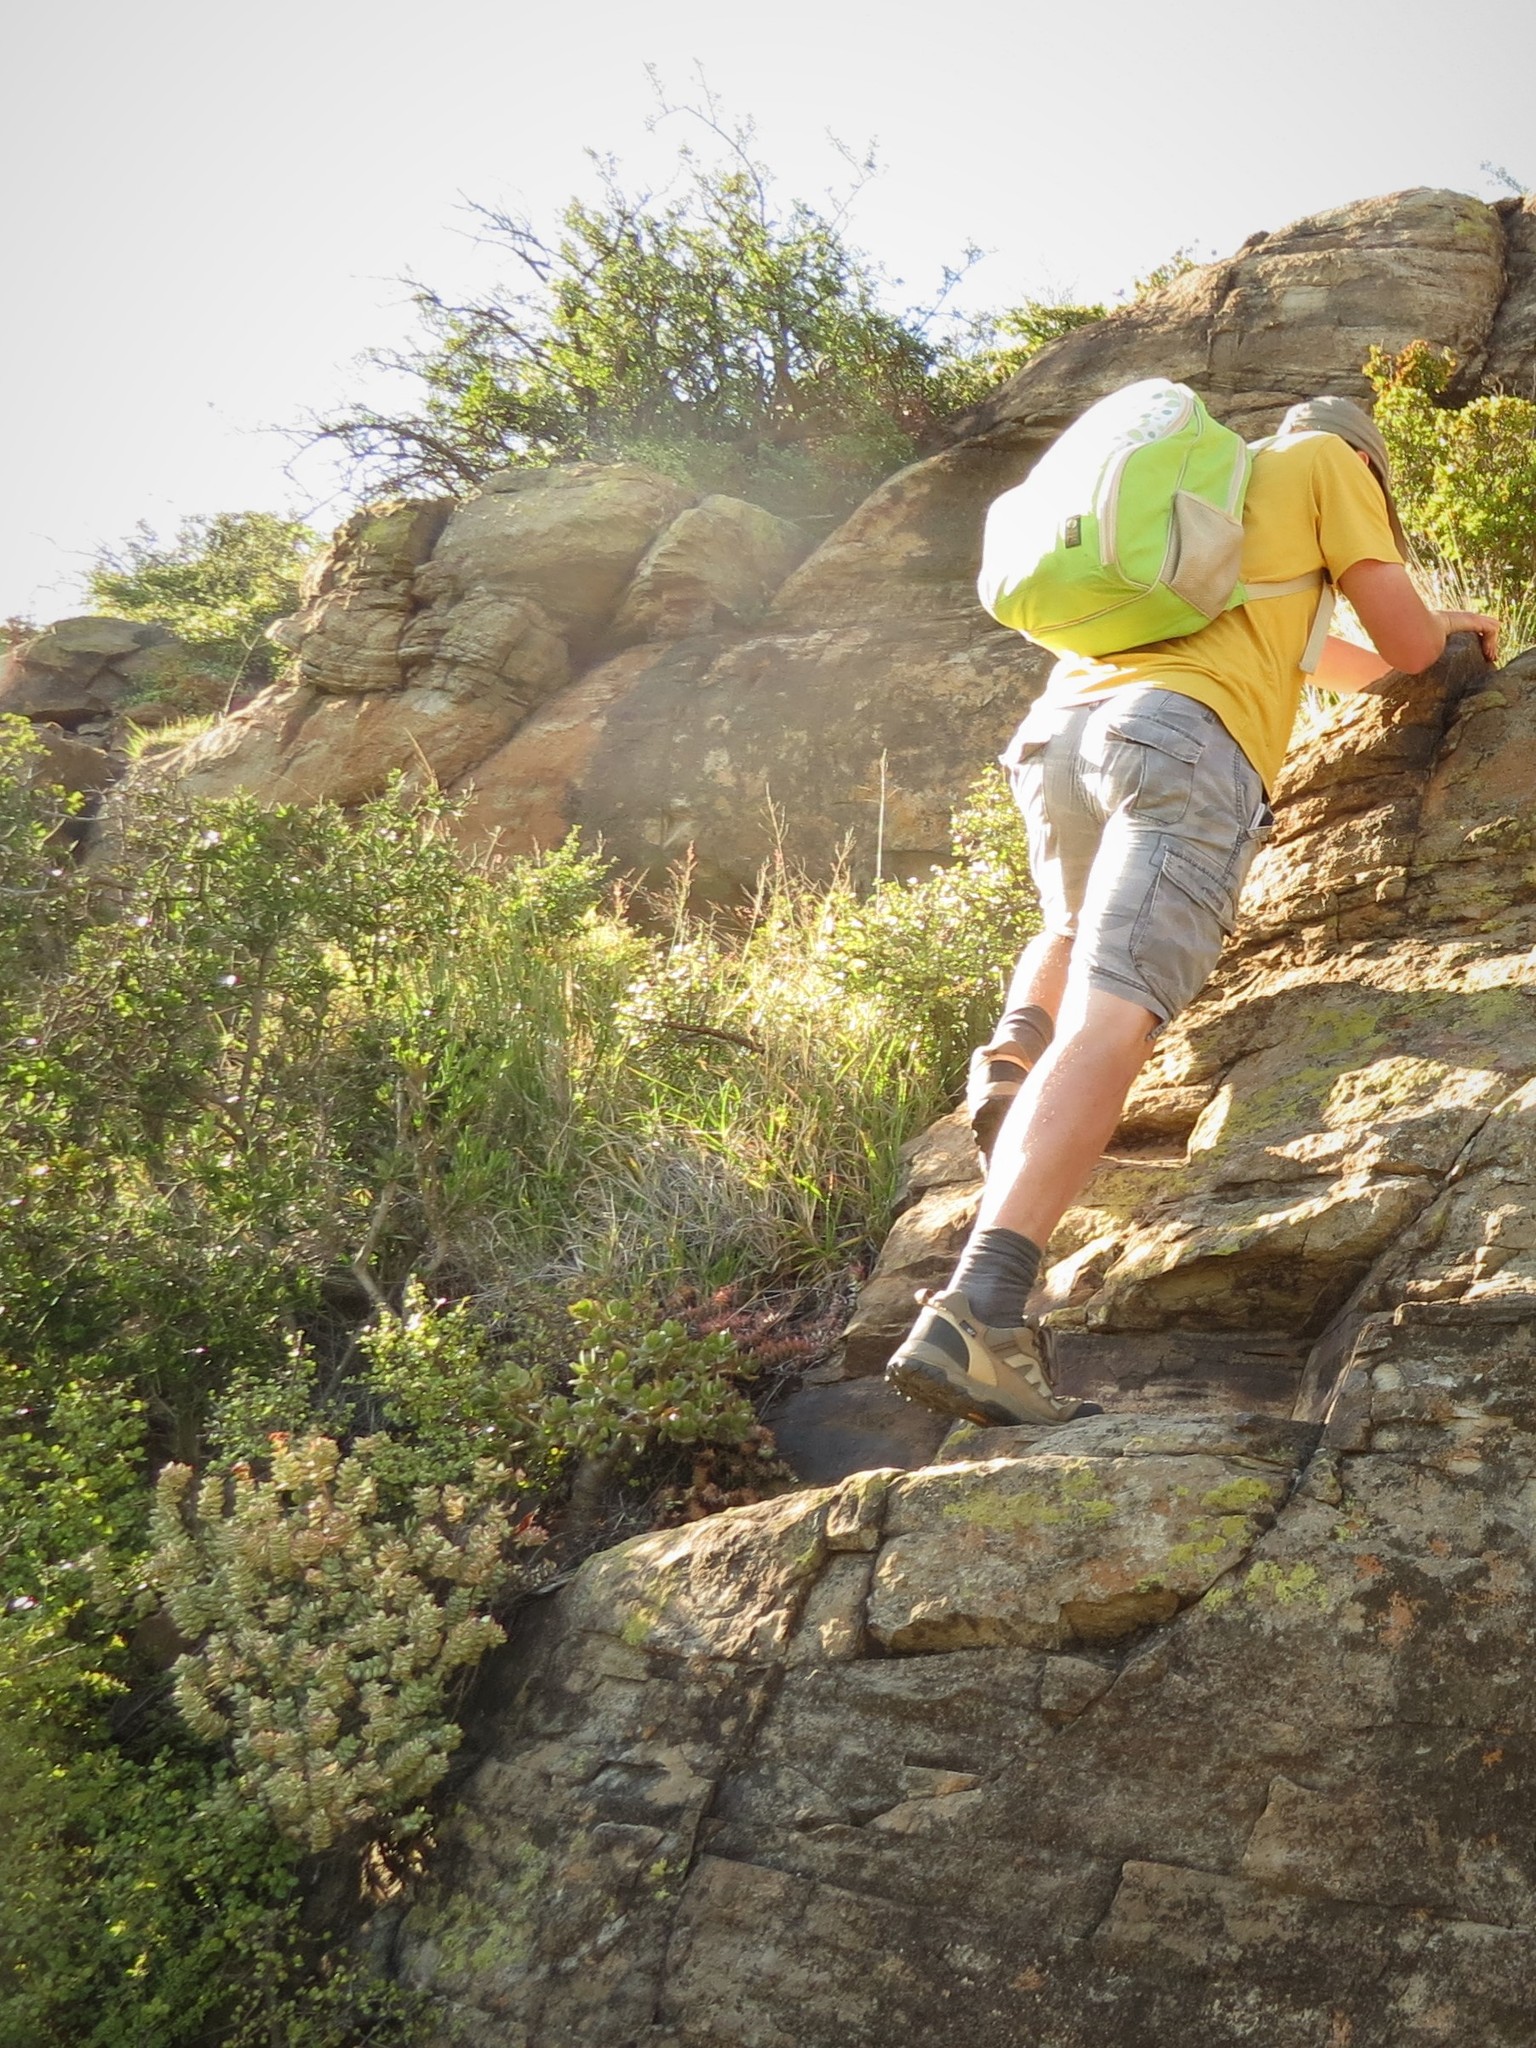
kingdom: Plantae
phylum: Tracheophyta
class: Magnoliopsida
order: Saxifragales
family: Crassulaceae
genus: Crassula
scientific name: Crassula rupestris
